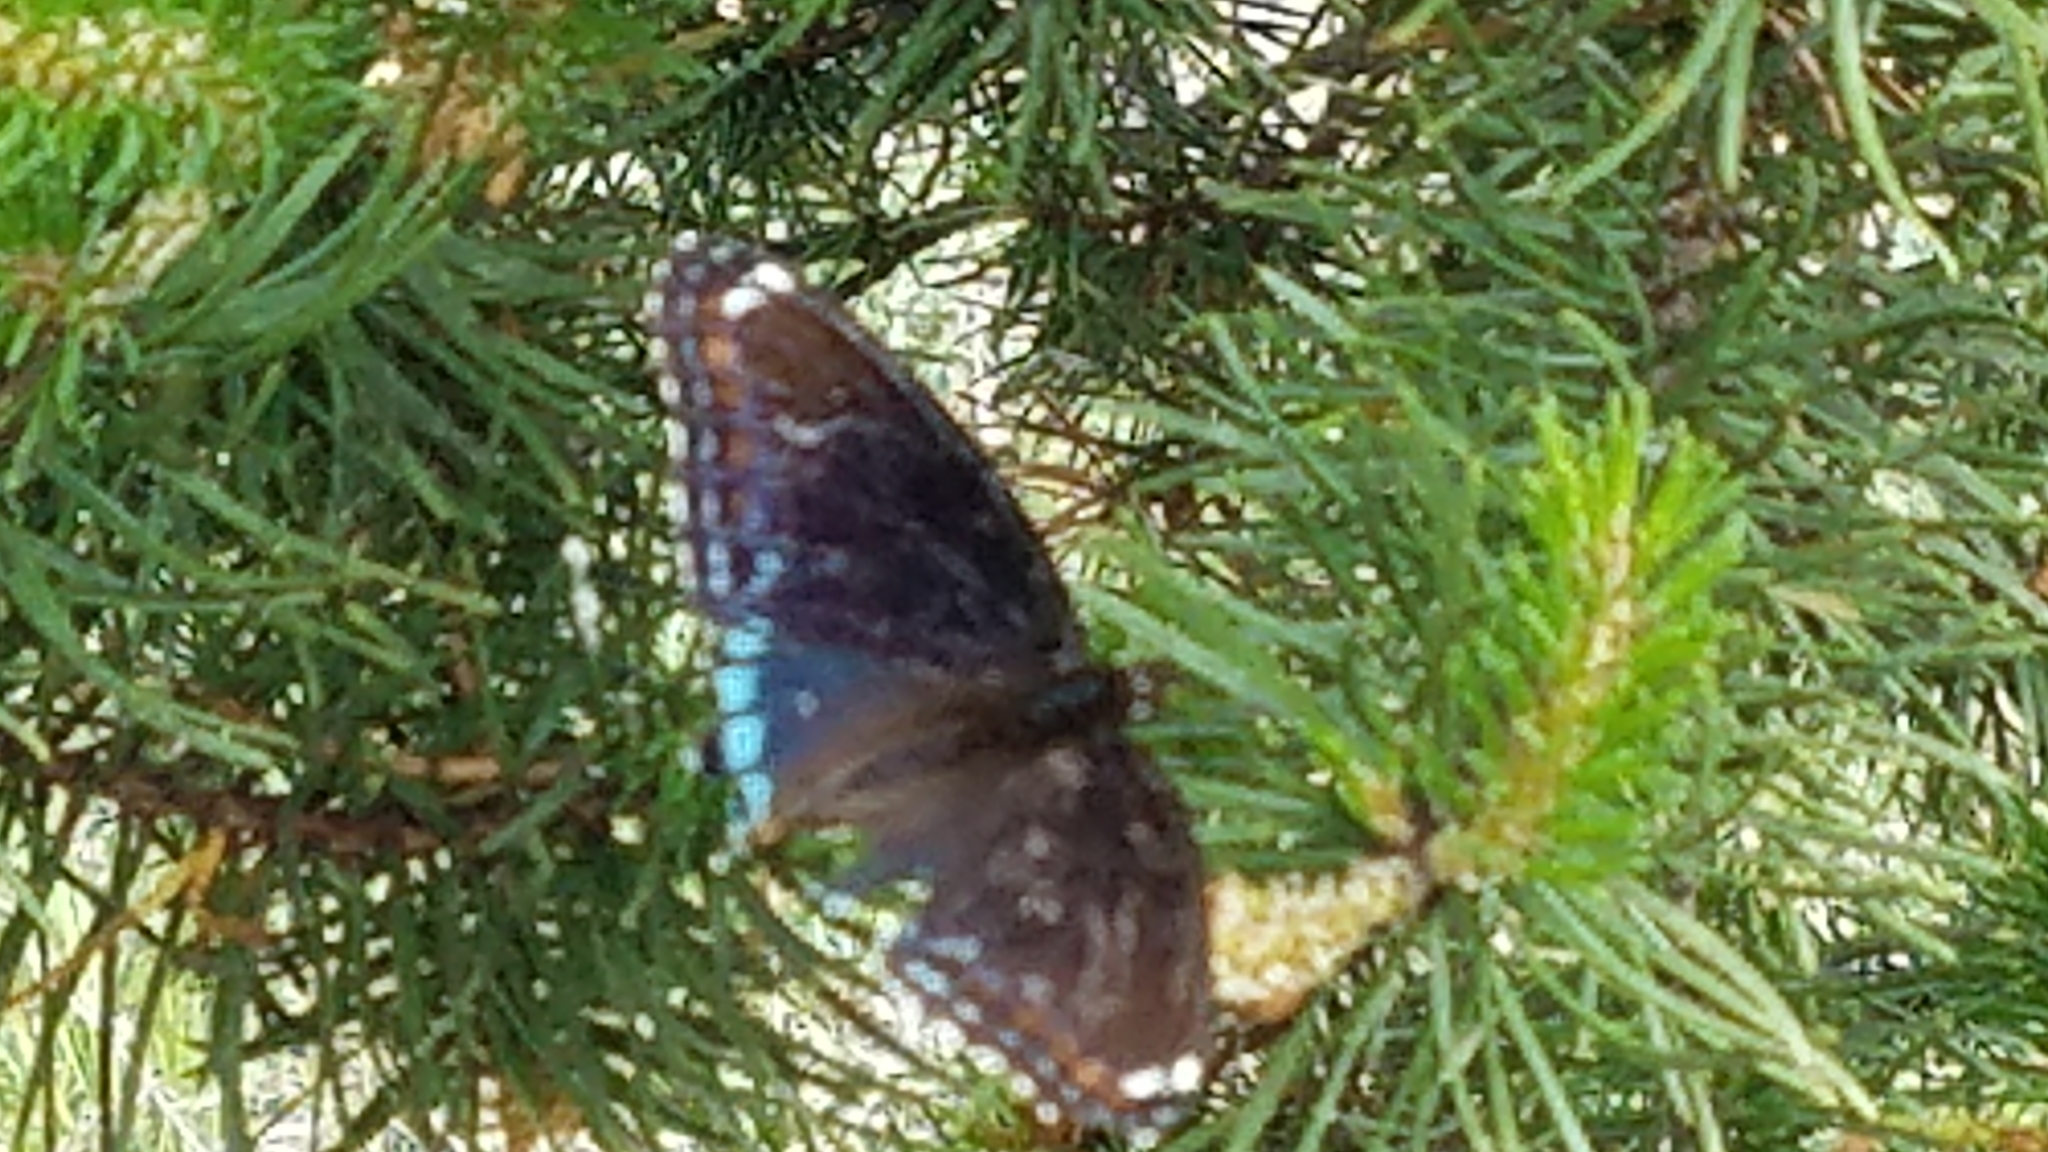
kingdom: Animalia
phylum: Arthropoda
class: Insecta
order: Lepidoptera
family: Nymphalidae
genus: Limenitis
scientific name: Limenitis arthemis
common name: Red-spotted admiral
